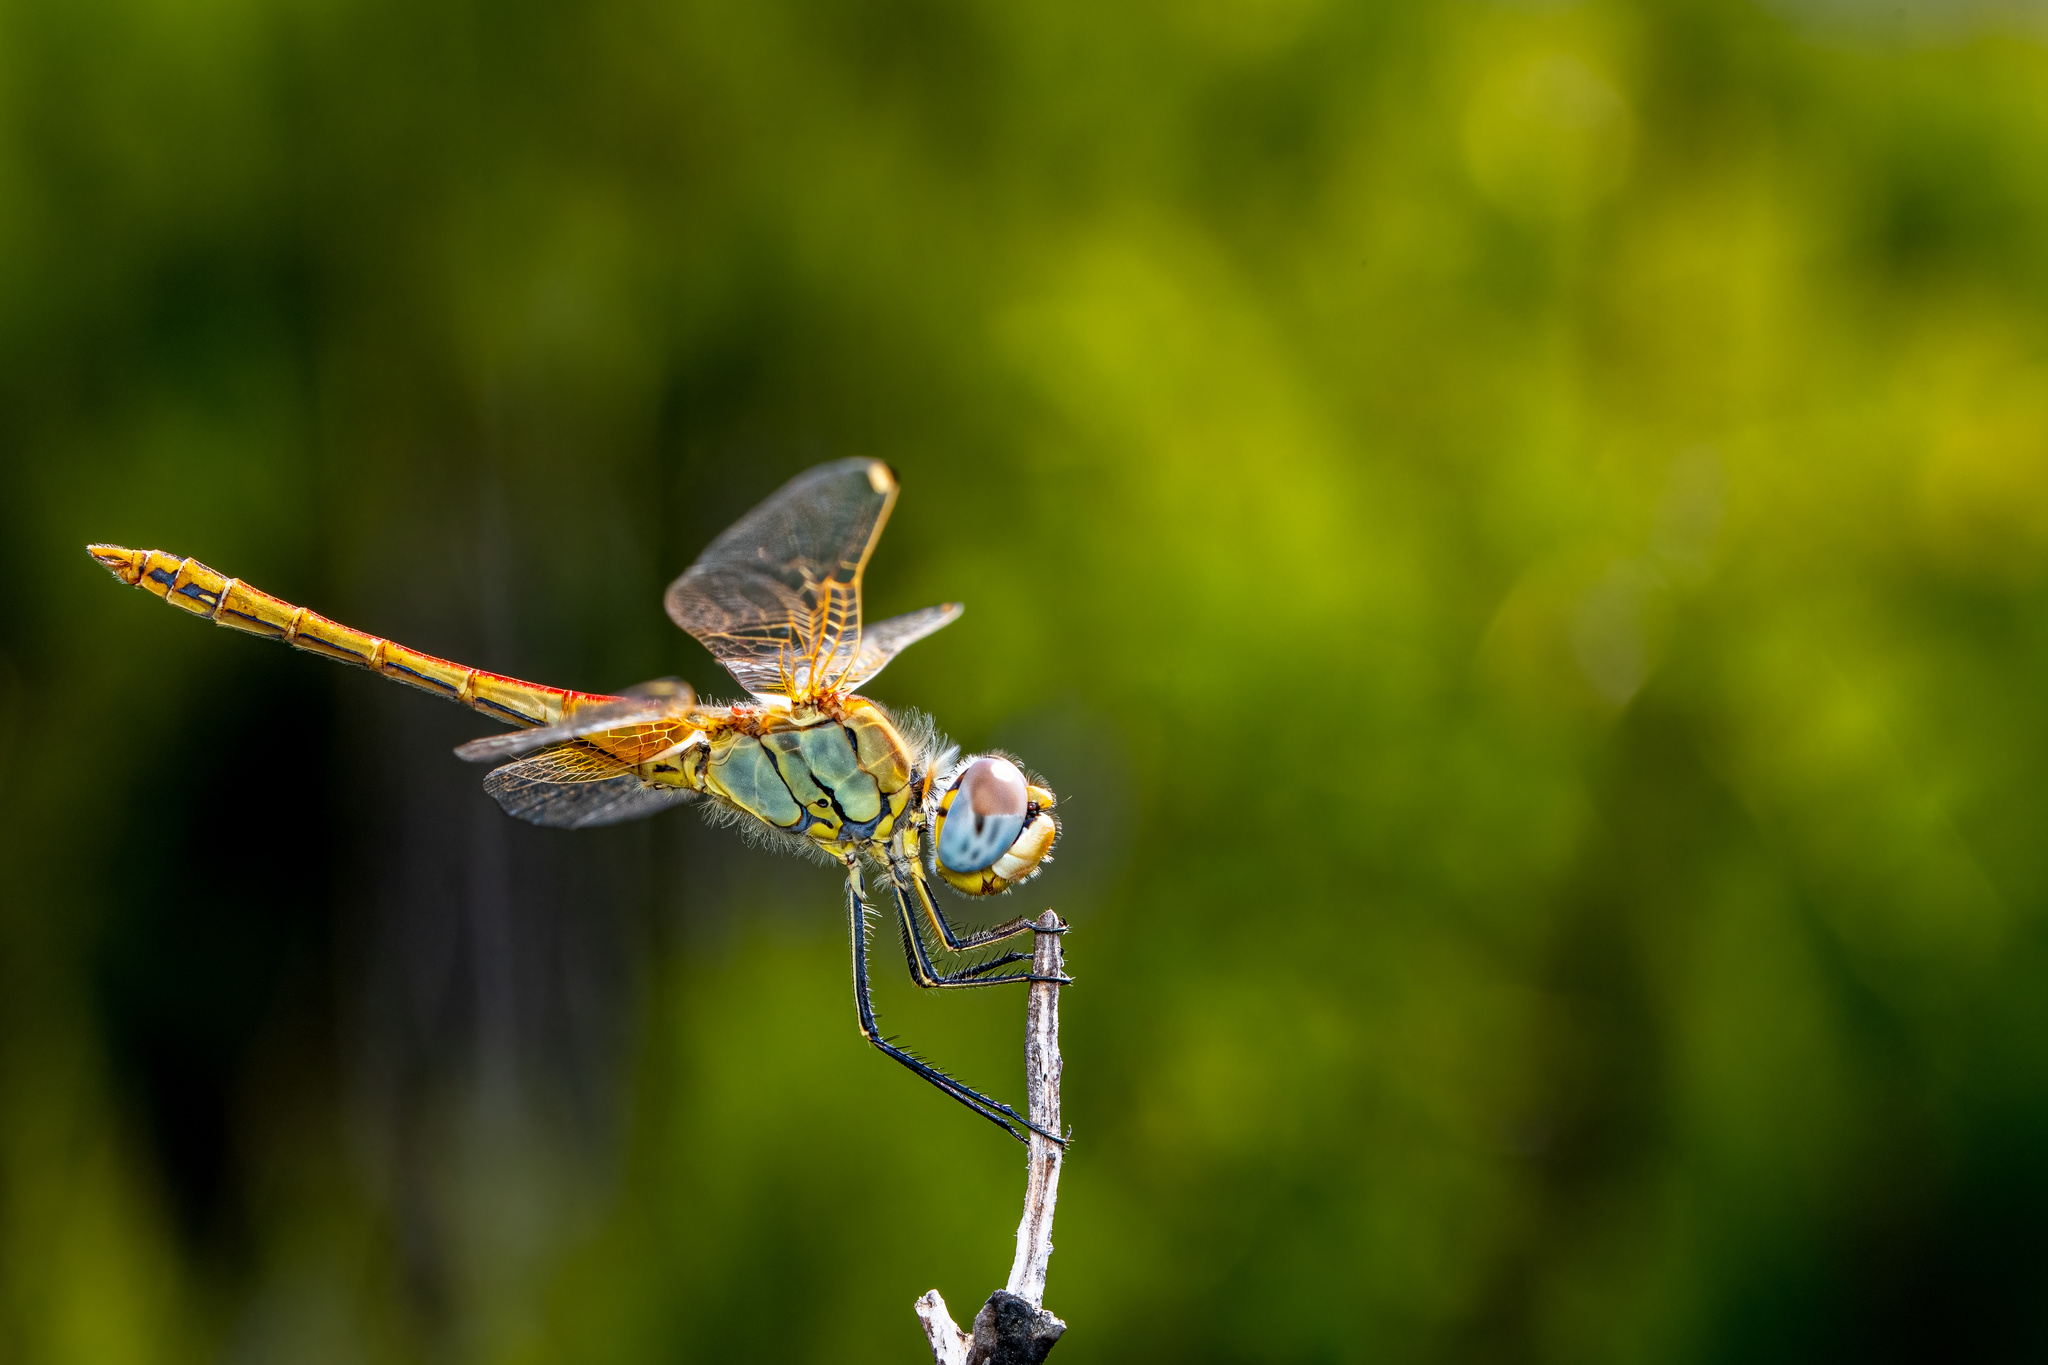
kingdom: Animalia
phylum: Arthropoda
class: Insecta
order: Odonata
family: Libellulidae
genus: Sympetrum
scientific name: Sympetrum fonscolombii
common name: Red-veined darter
